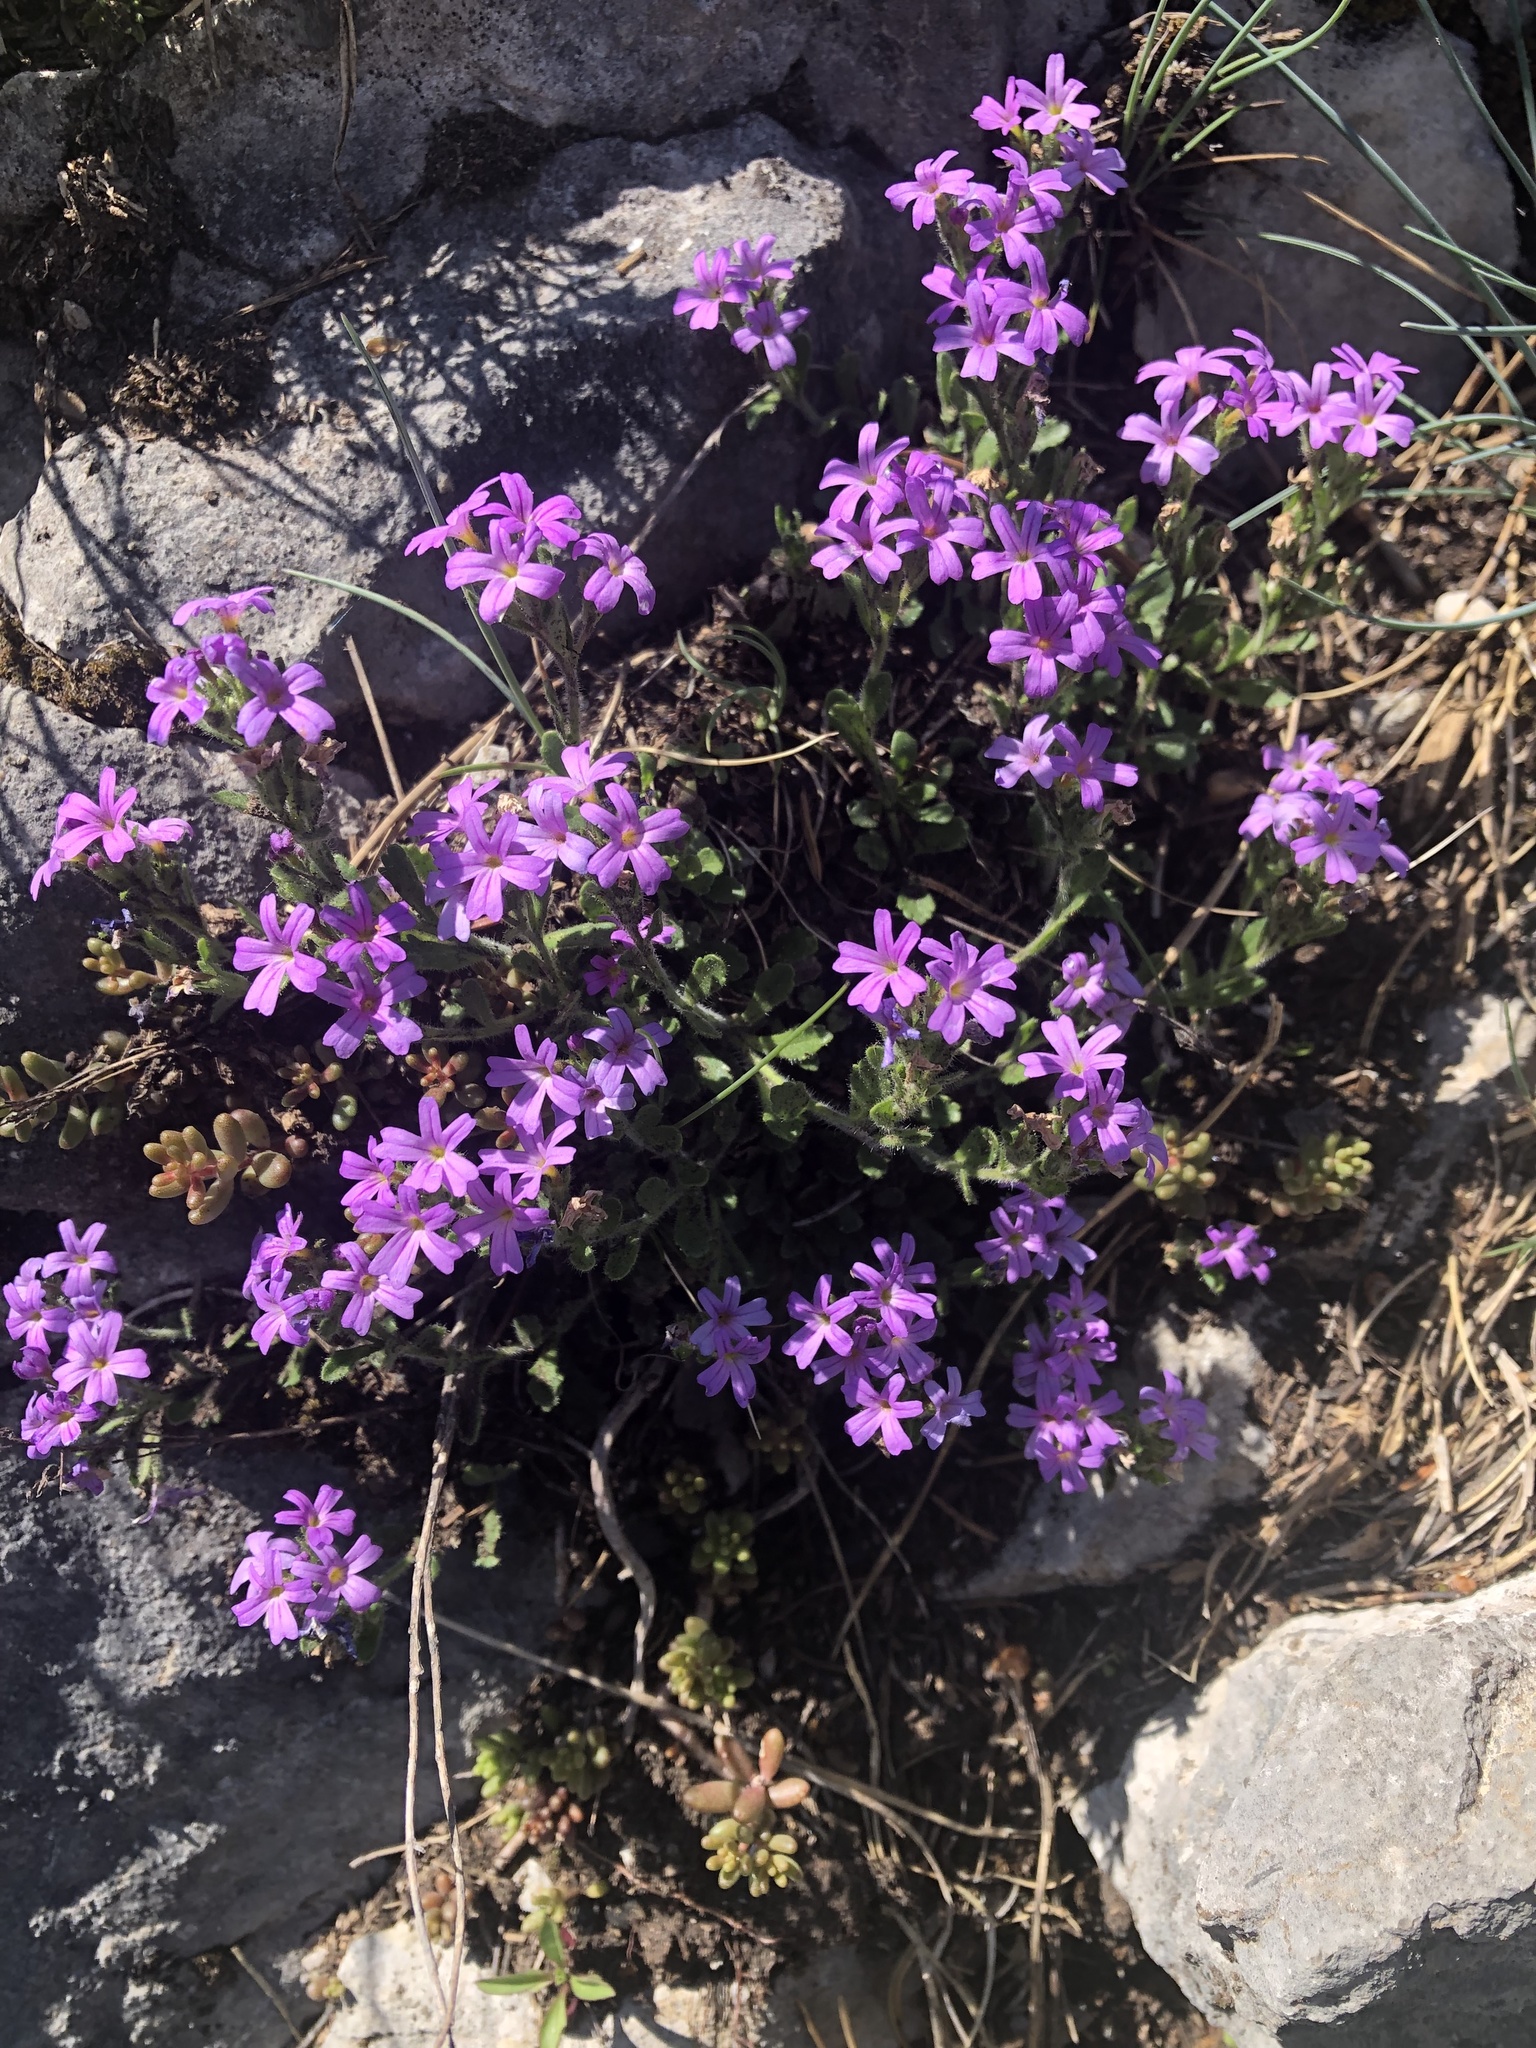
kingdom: Plantae
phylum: Tracheophyta
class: Magnoliopsida
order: Lamiales
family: Plantaginaceae
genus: Erinus
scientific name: Erinus alpinus
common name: Fairy foxglove
